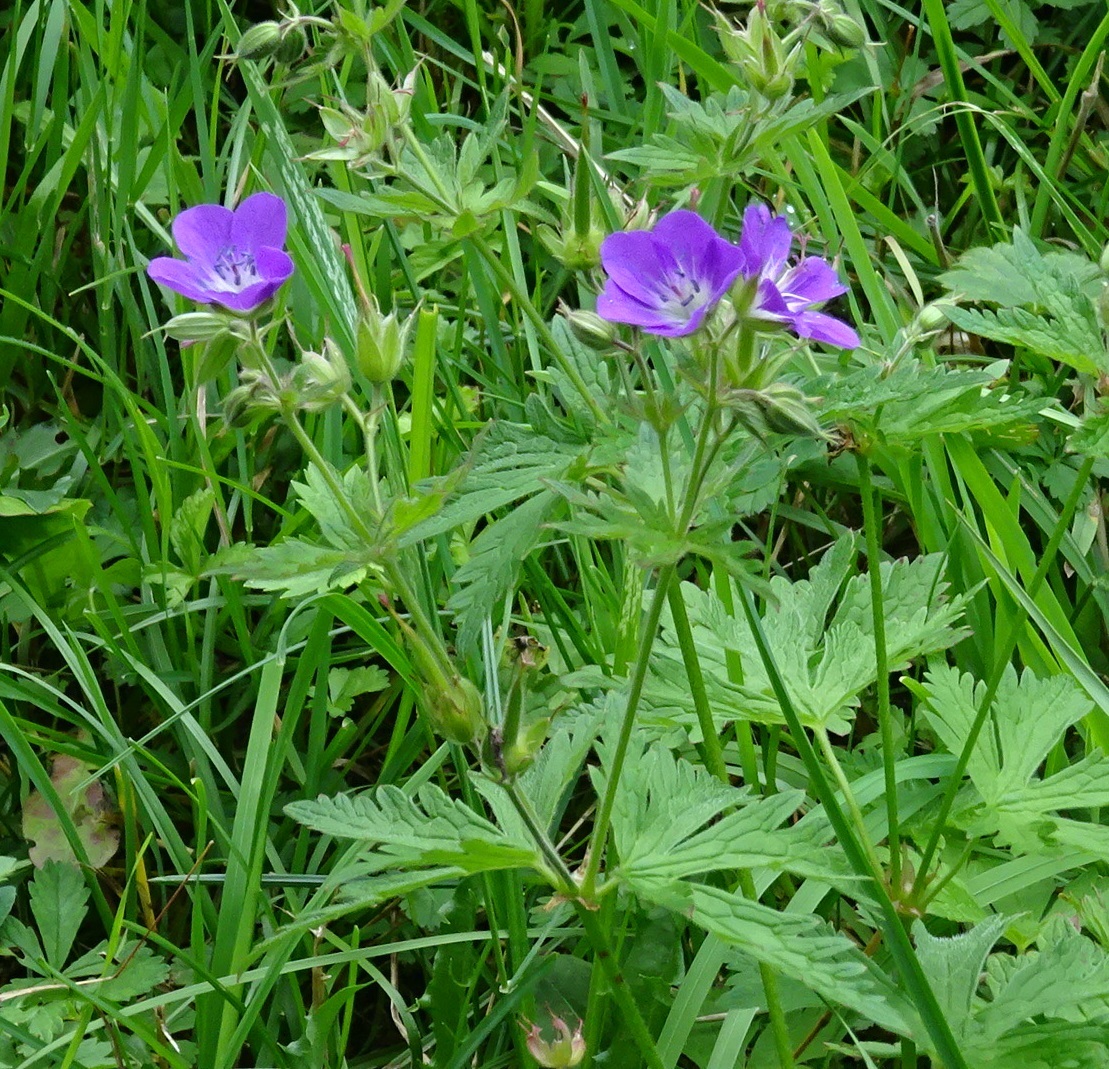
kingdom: Plantae
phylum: Tracheophyta
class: Magnoliopsida
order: Geraniales
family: Geraniaceae
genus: Geranium
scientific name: Geranium sylvaticum
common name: Wood crane's-bill
